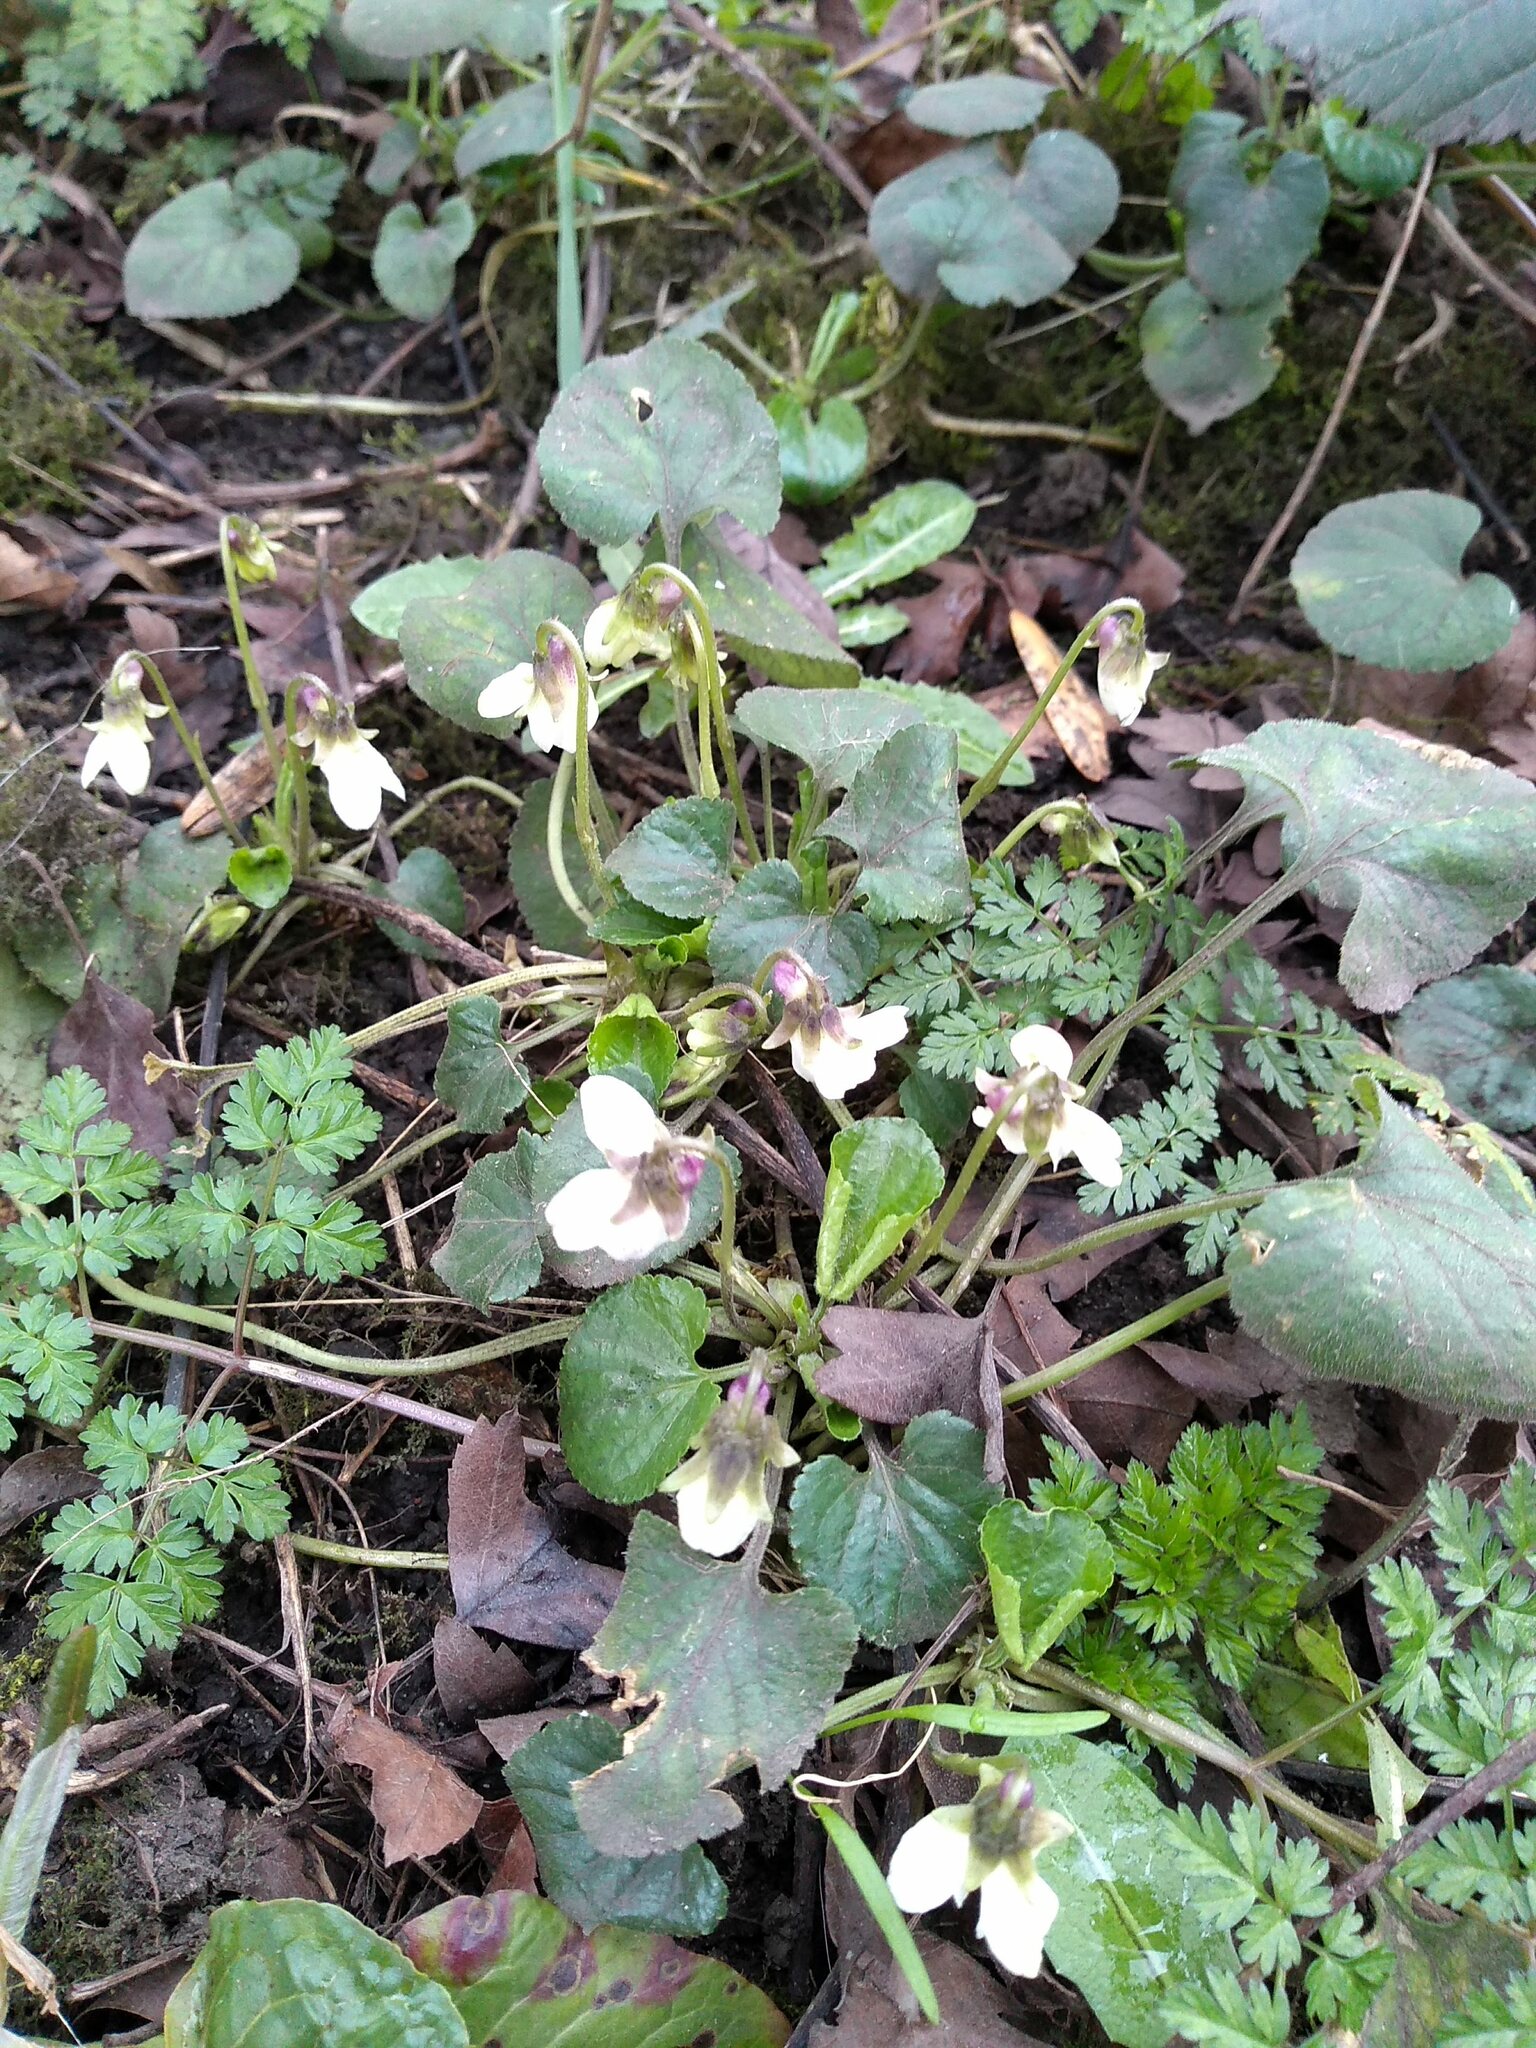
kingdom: Plantae
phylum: Tracheophyta
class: Magnoliopsida
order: Malpighiales
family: Violaceae
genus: Viola
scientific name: Viola odorata
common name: Sweet violet
